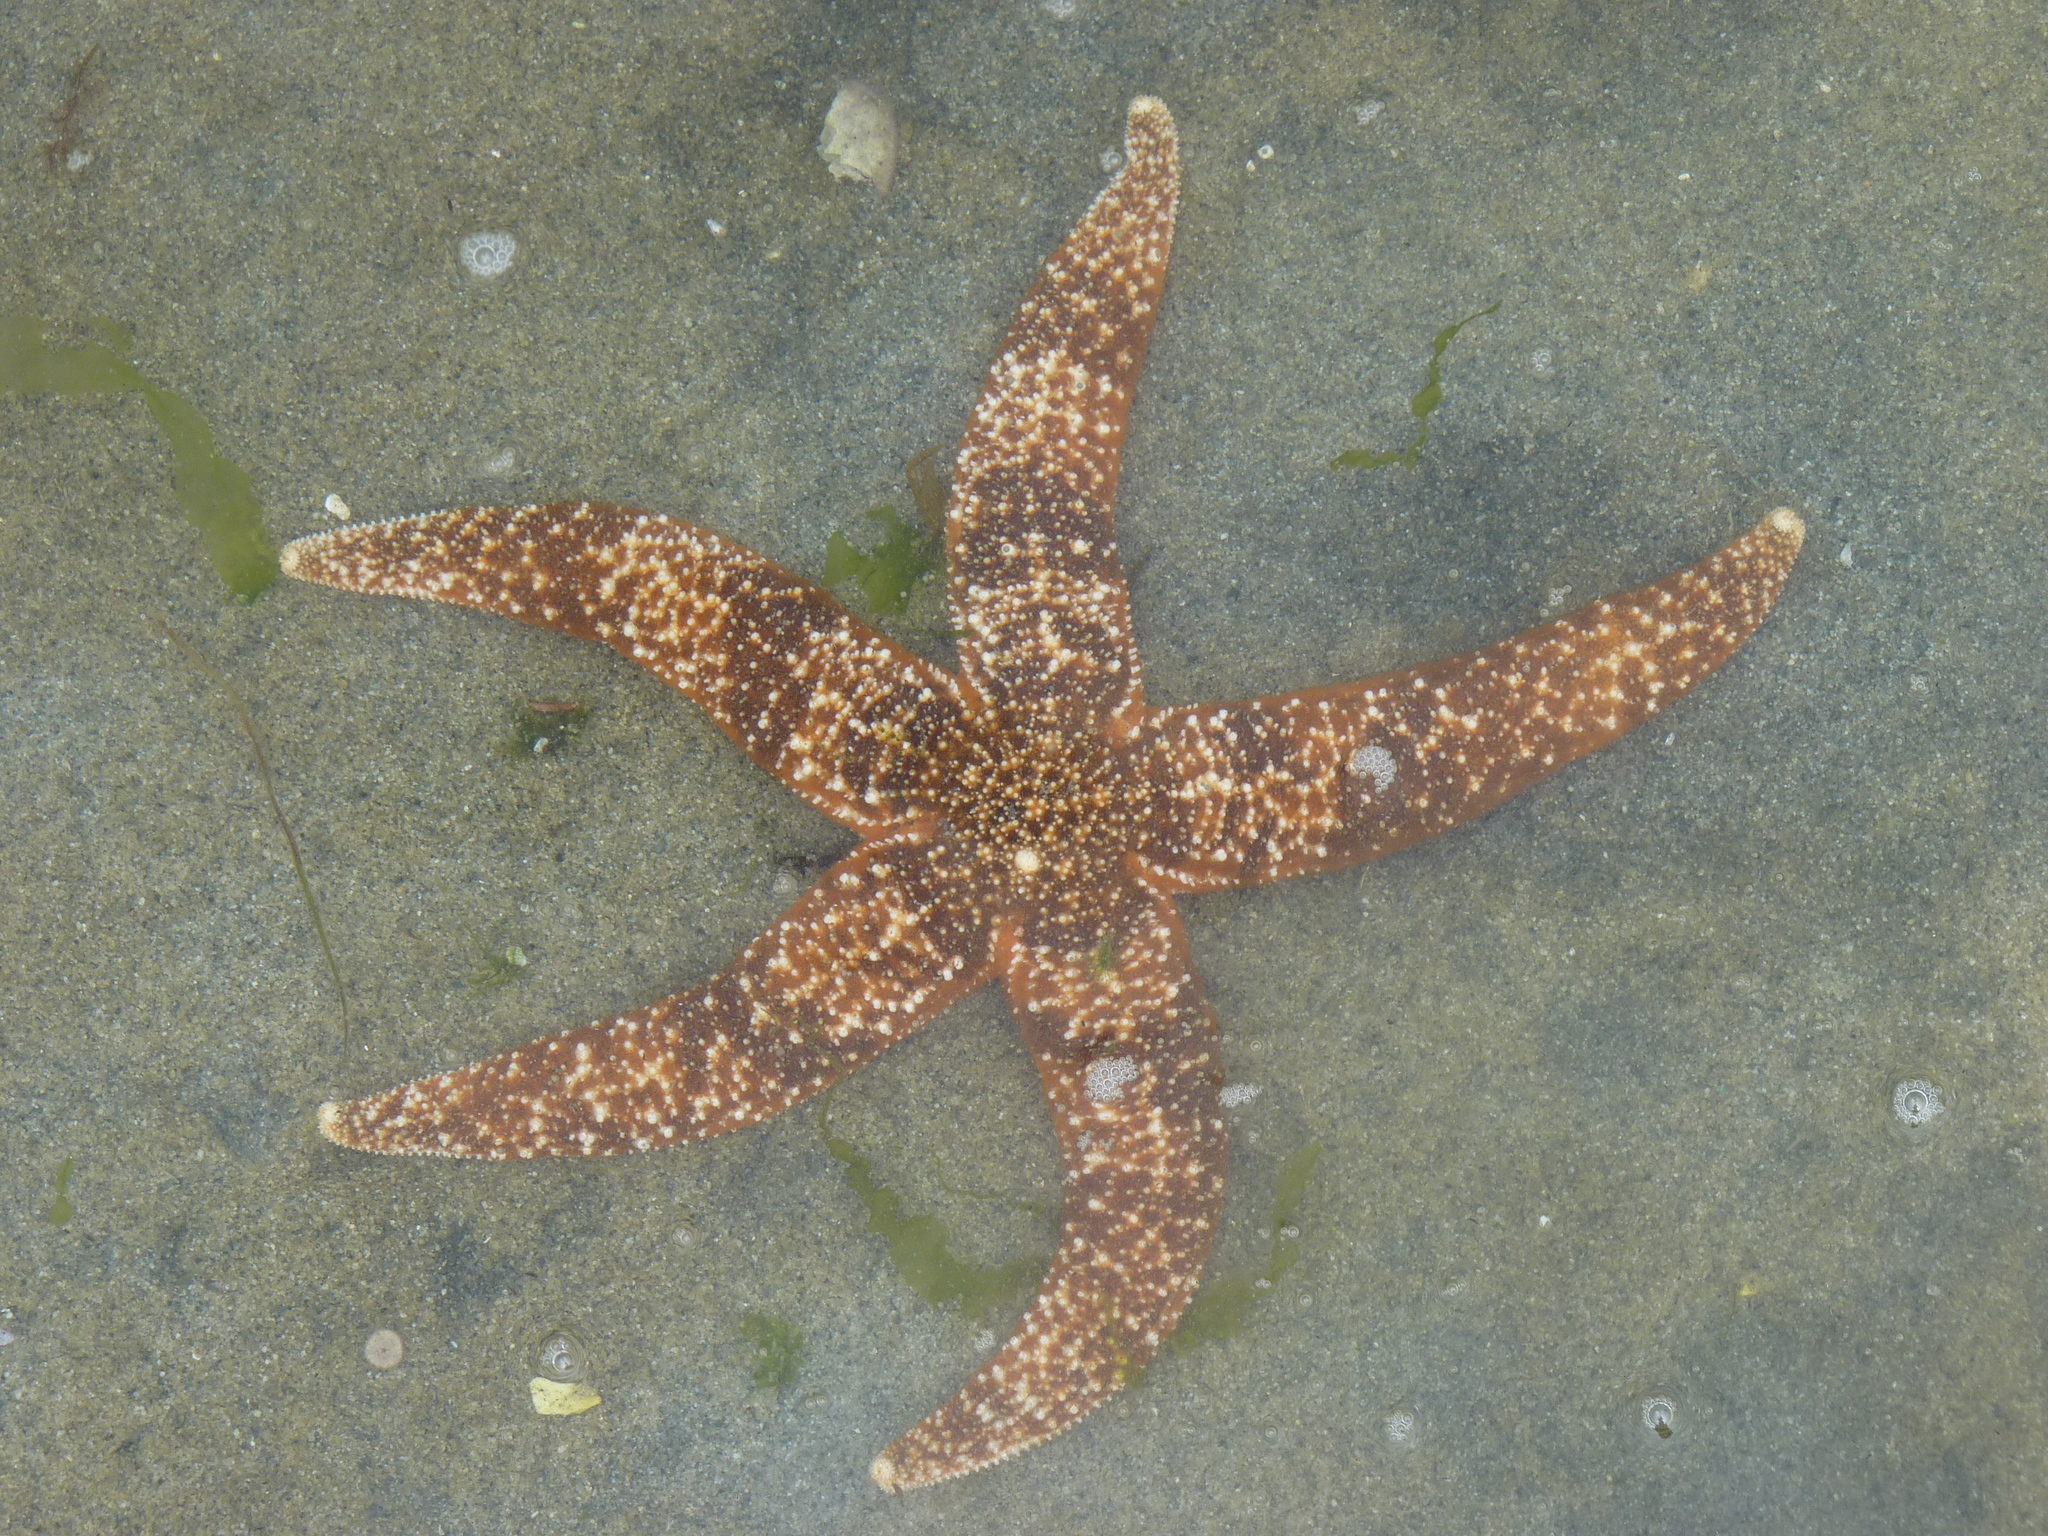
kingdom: Animalia
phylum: Echinodermata
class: Asteroidea
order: Forcipulatida
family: Asteriidae
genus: Evasterias
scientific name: Evasterias troschelii
